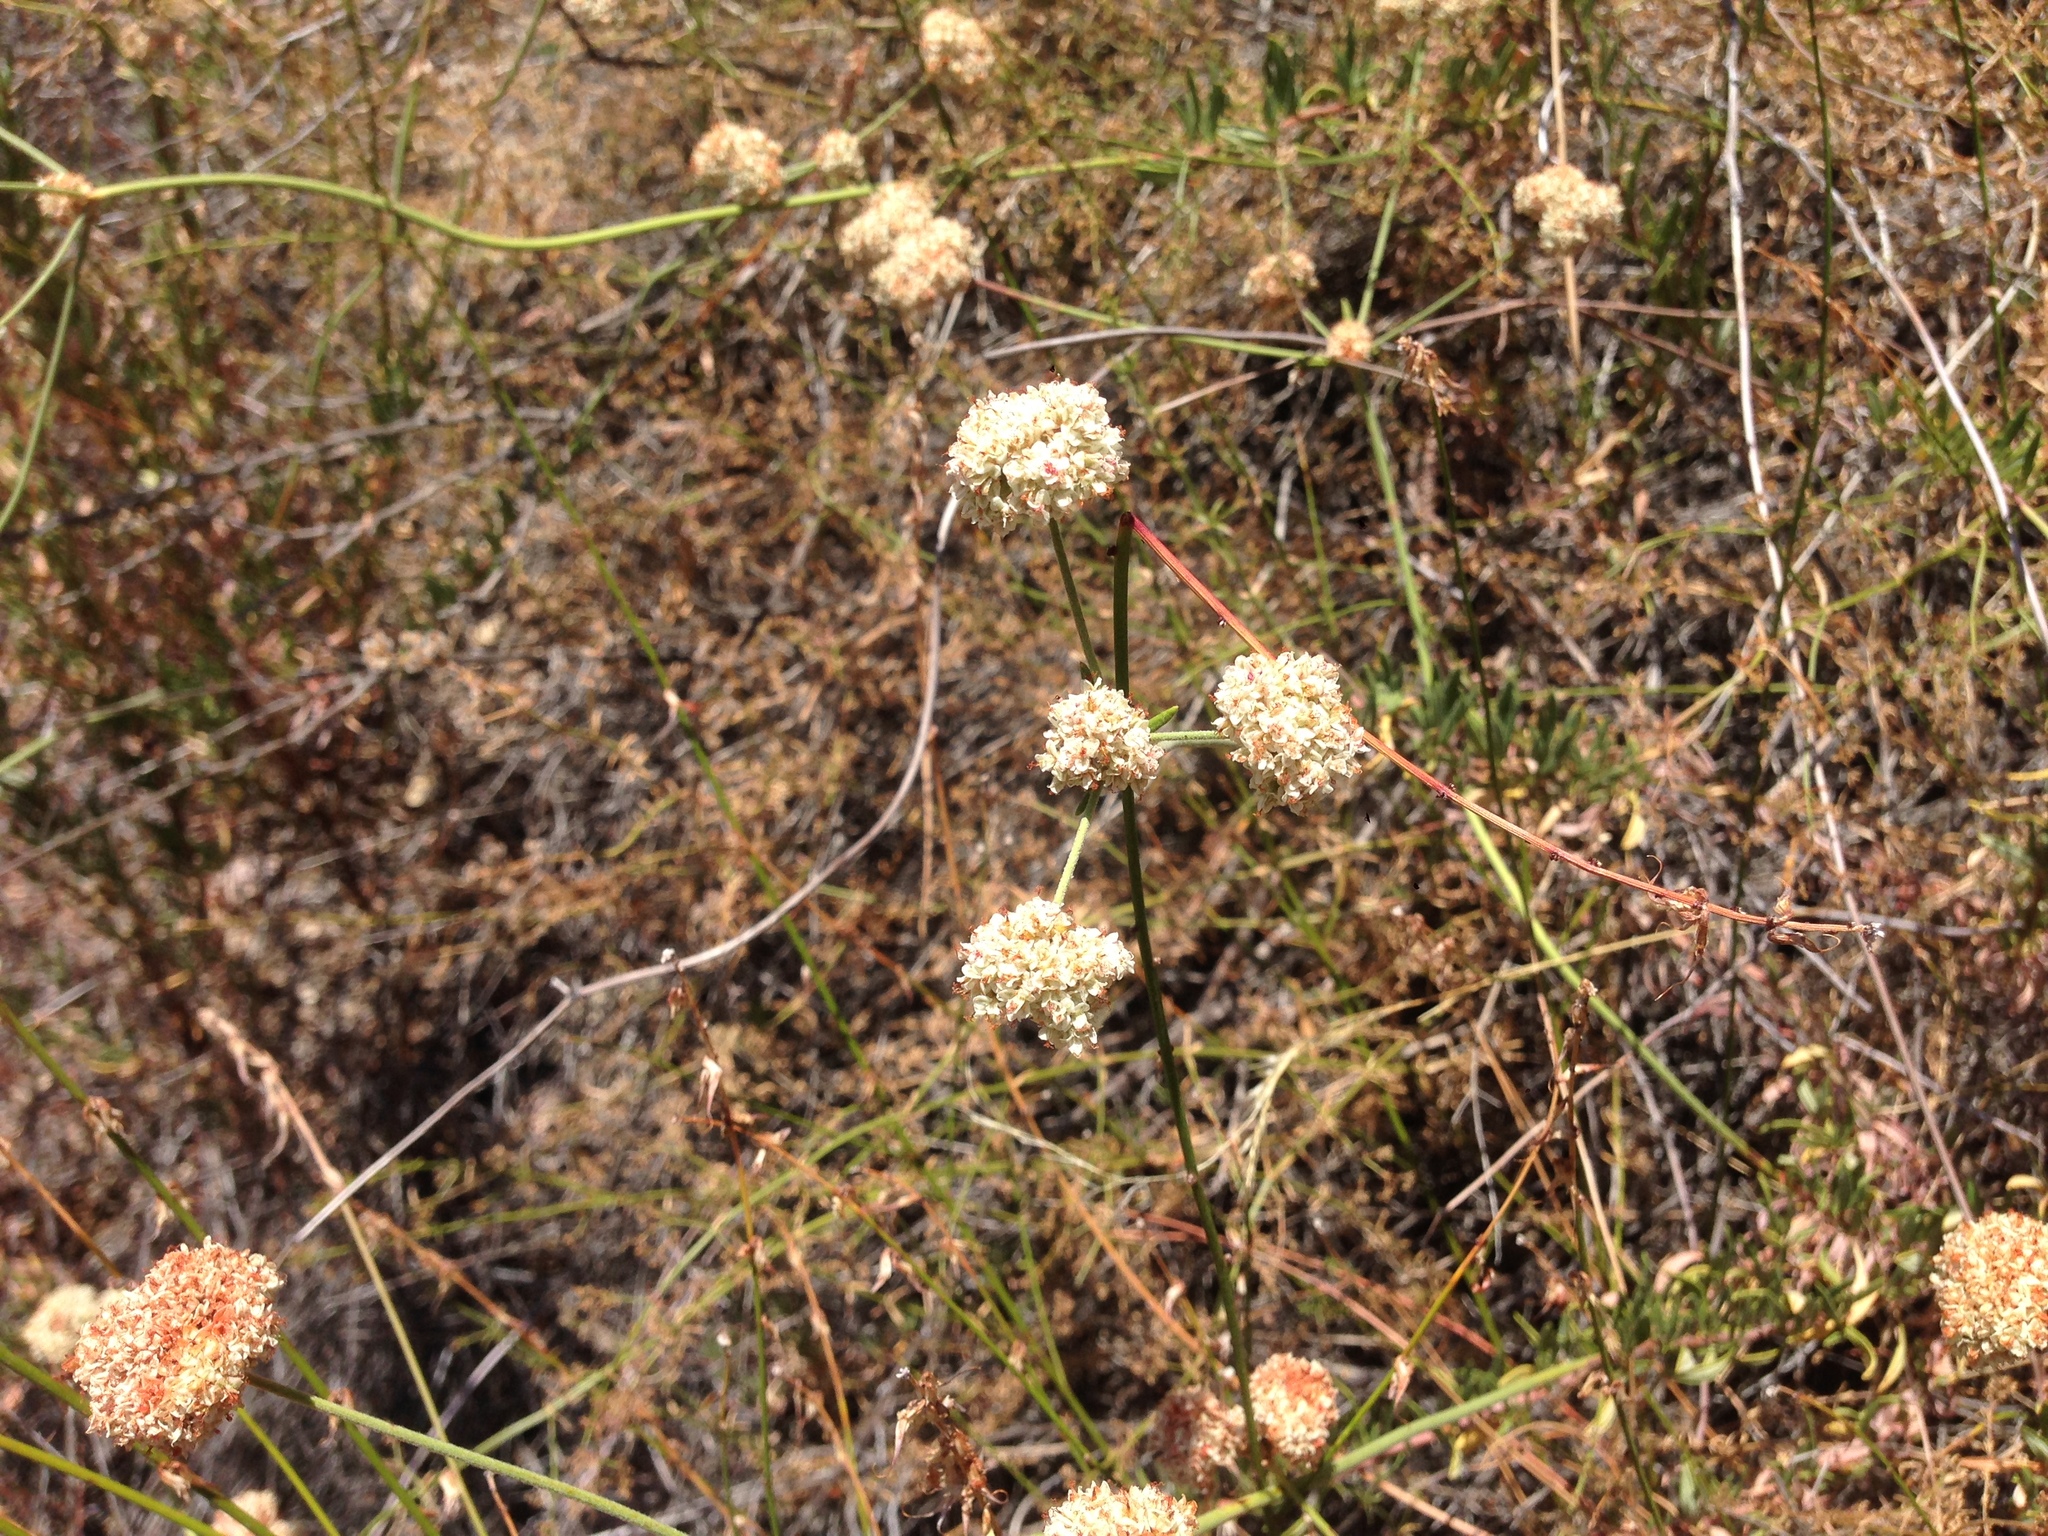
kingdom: Plantae
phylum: Tracheophyta
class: Magnoliopsida
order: Caryophyllales
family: Polygonaceae
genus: Eriogonum
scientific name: Eriogonum fasciculatum
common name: California wild buckwheat
